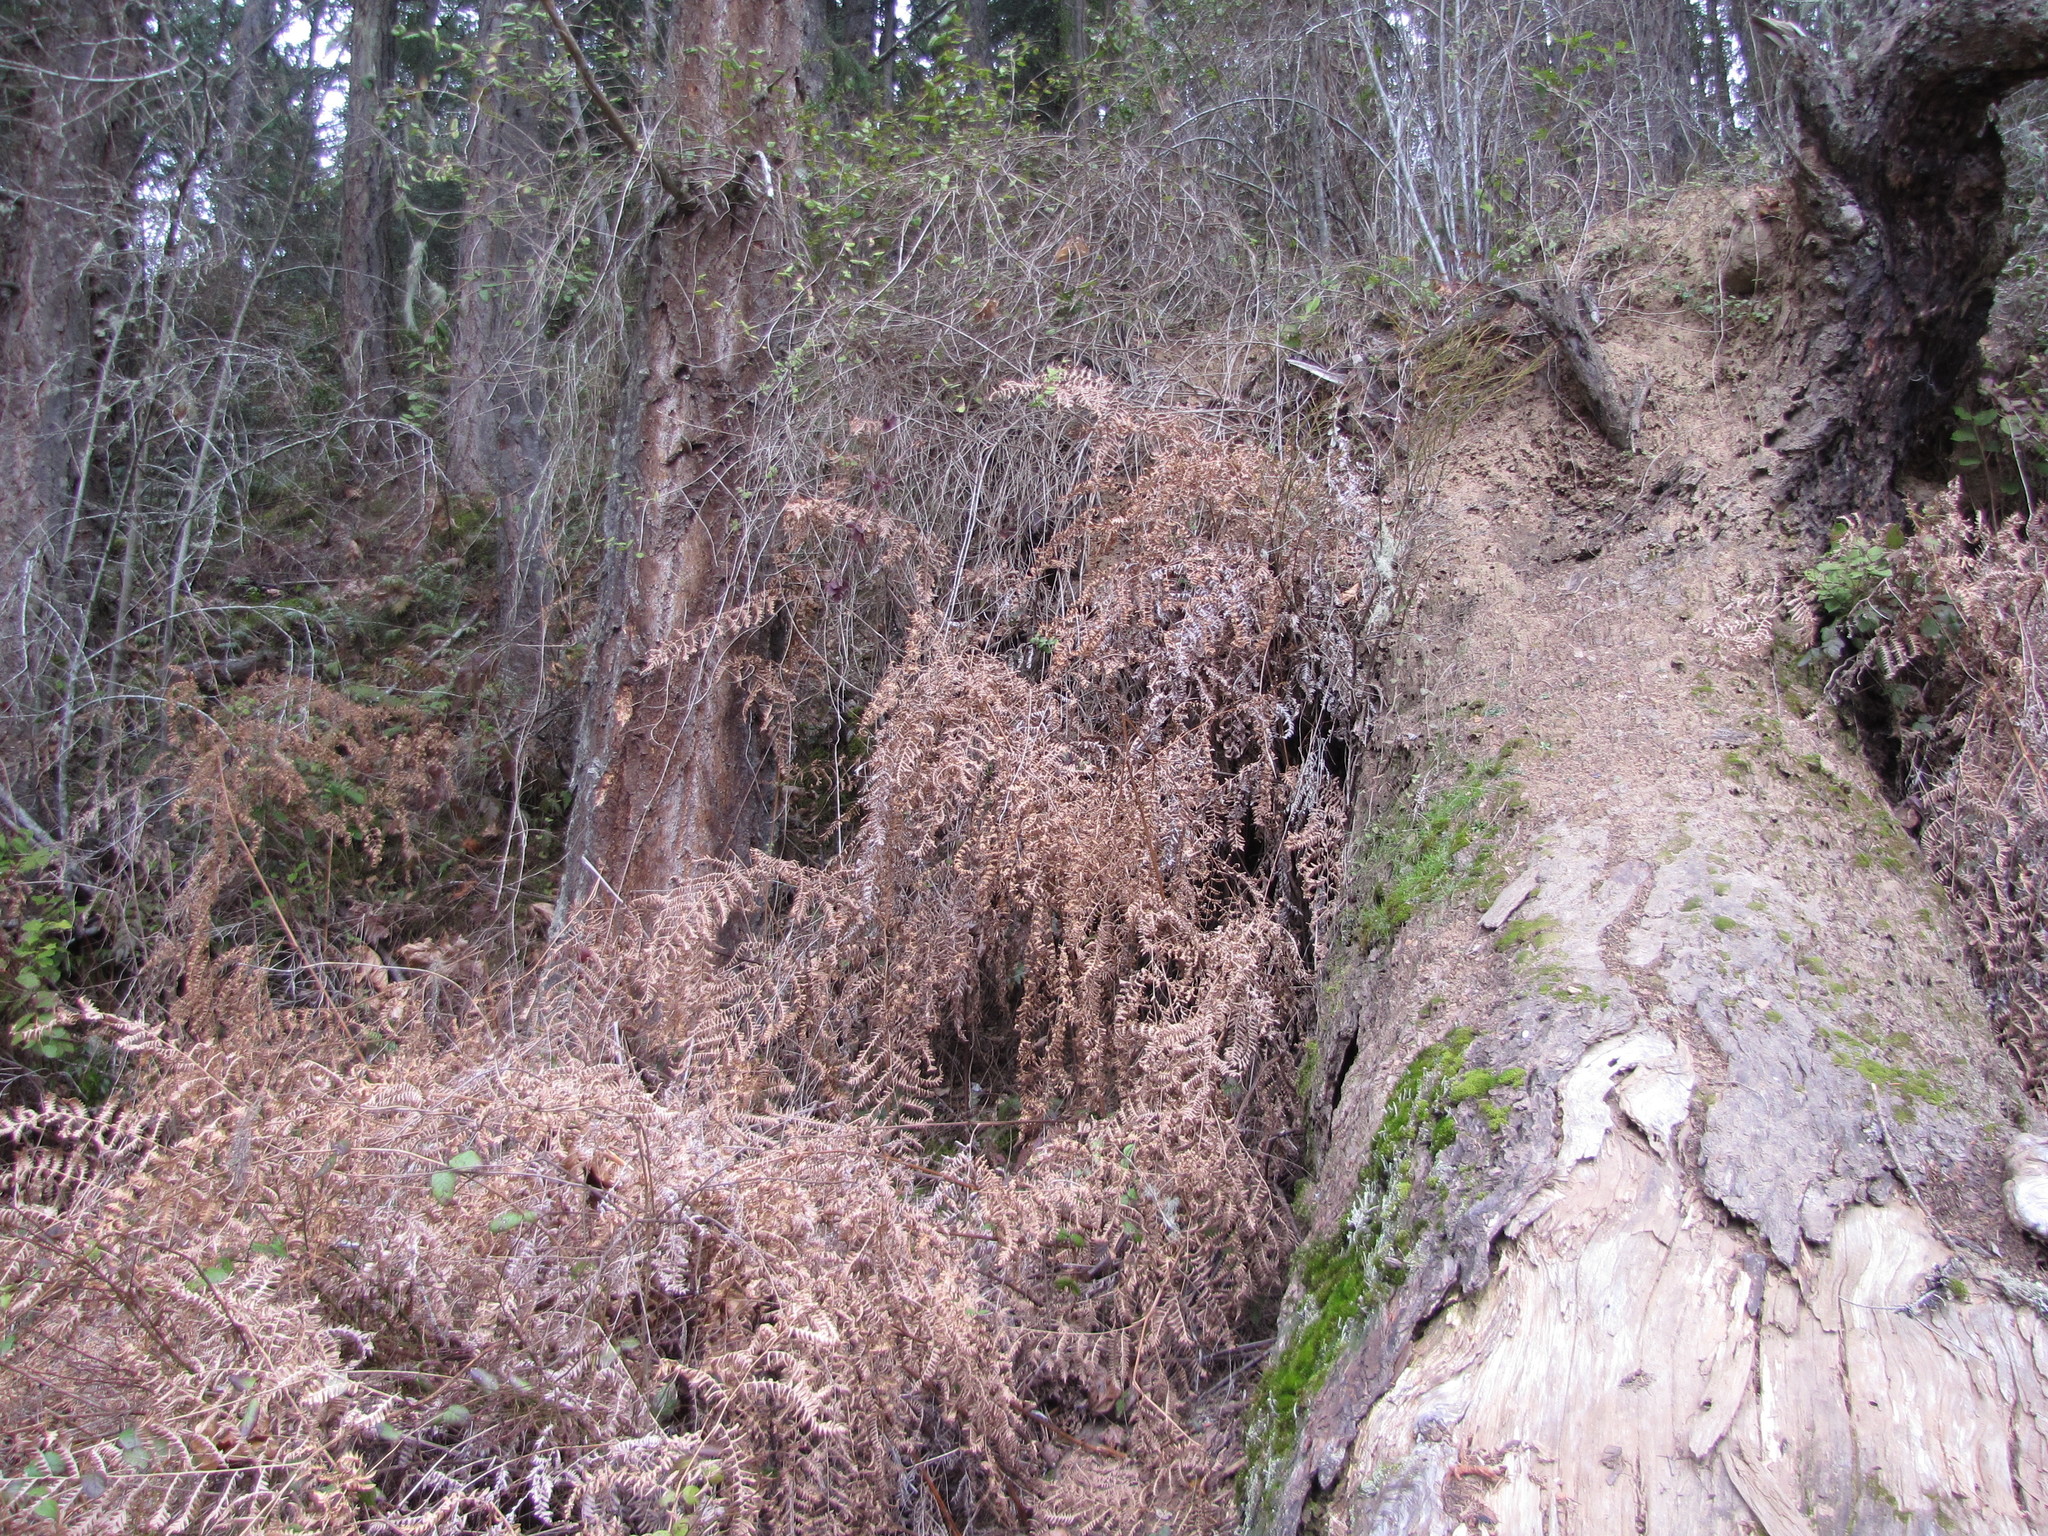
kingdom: Plantae
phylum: Tracheophyta
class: Polypodiopsida
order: Polypodiales
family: Dennstaedtiaceae
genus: Pteridium
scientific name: Pteridium aquilinum
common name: Bracken
